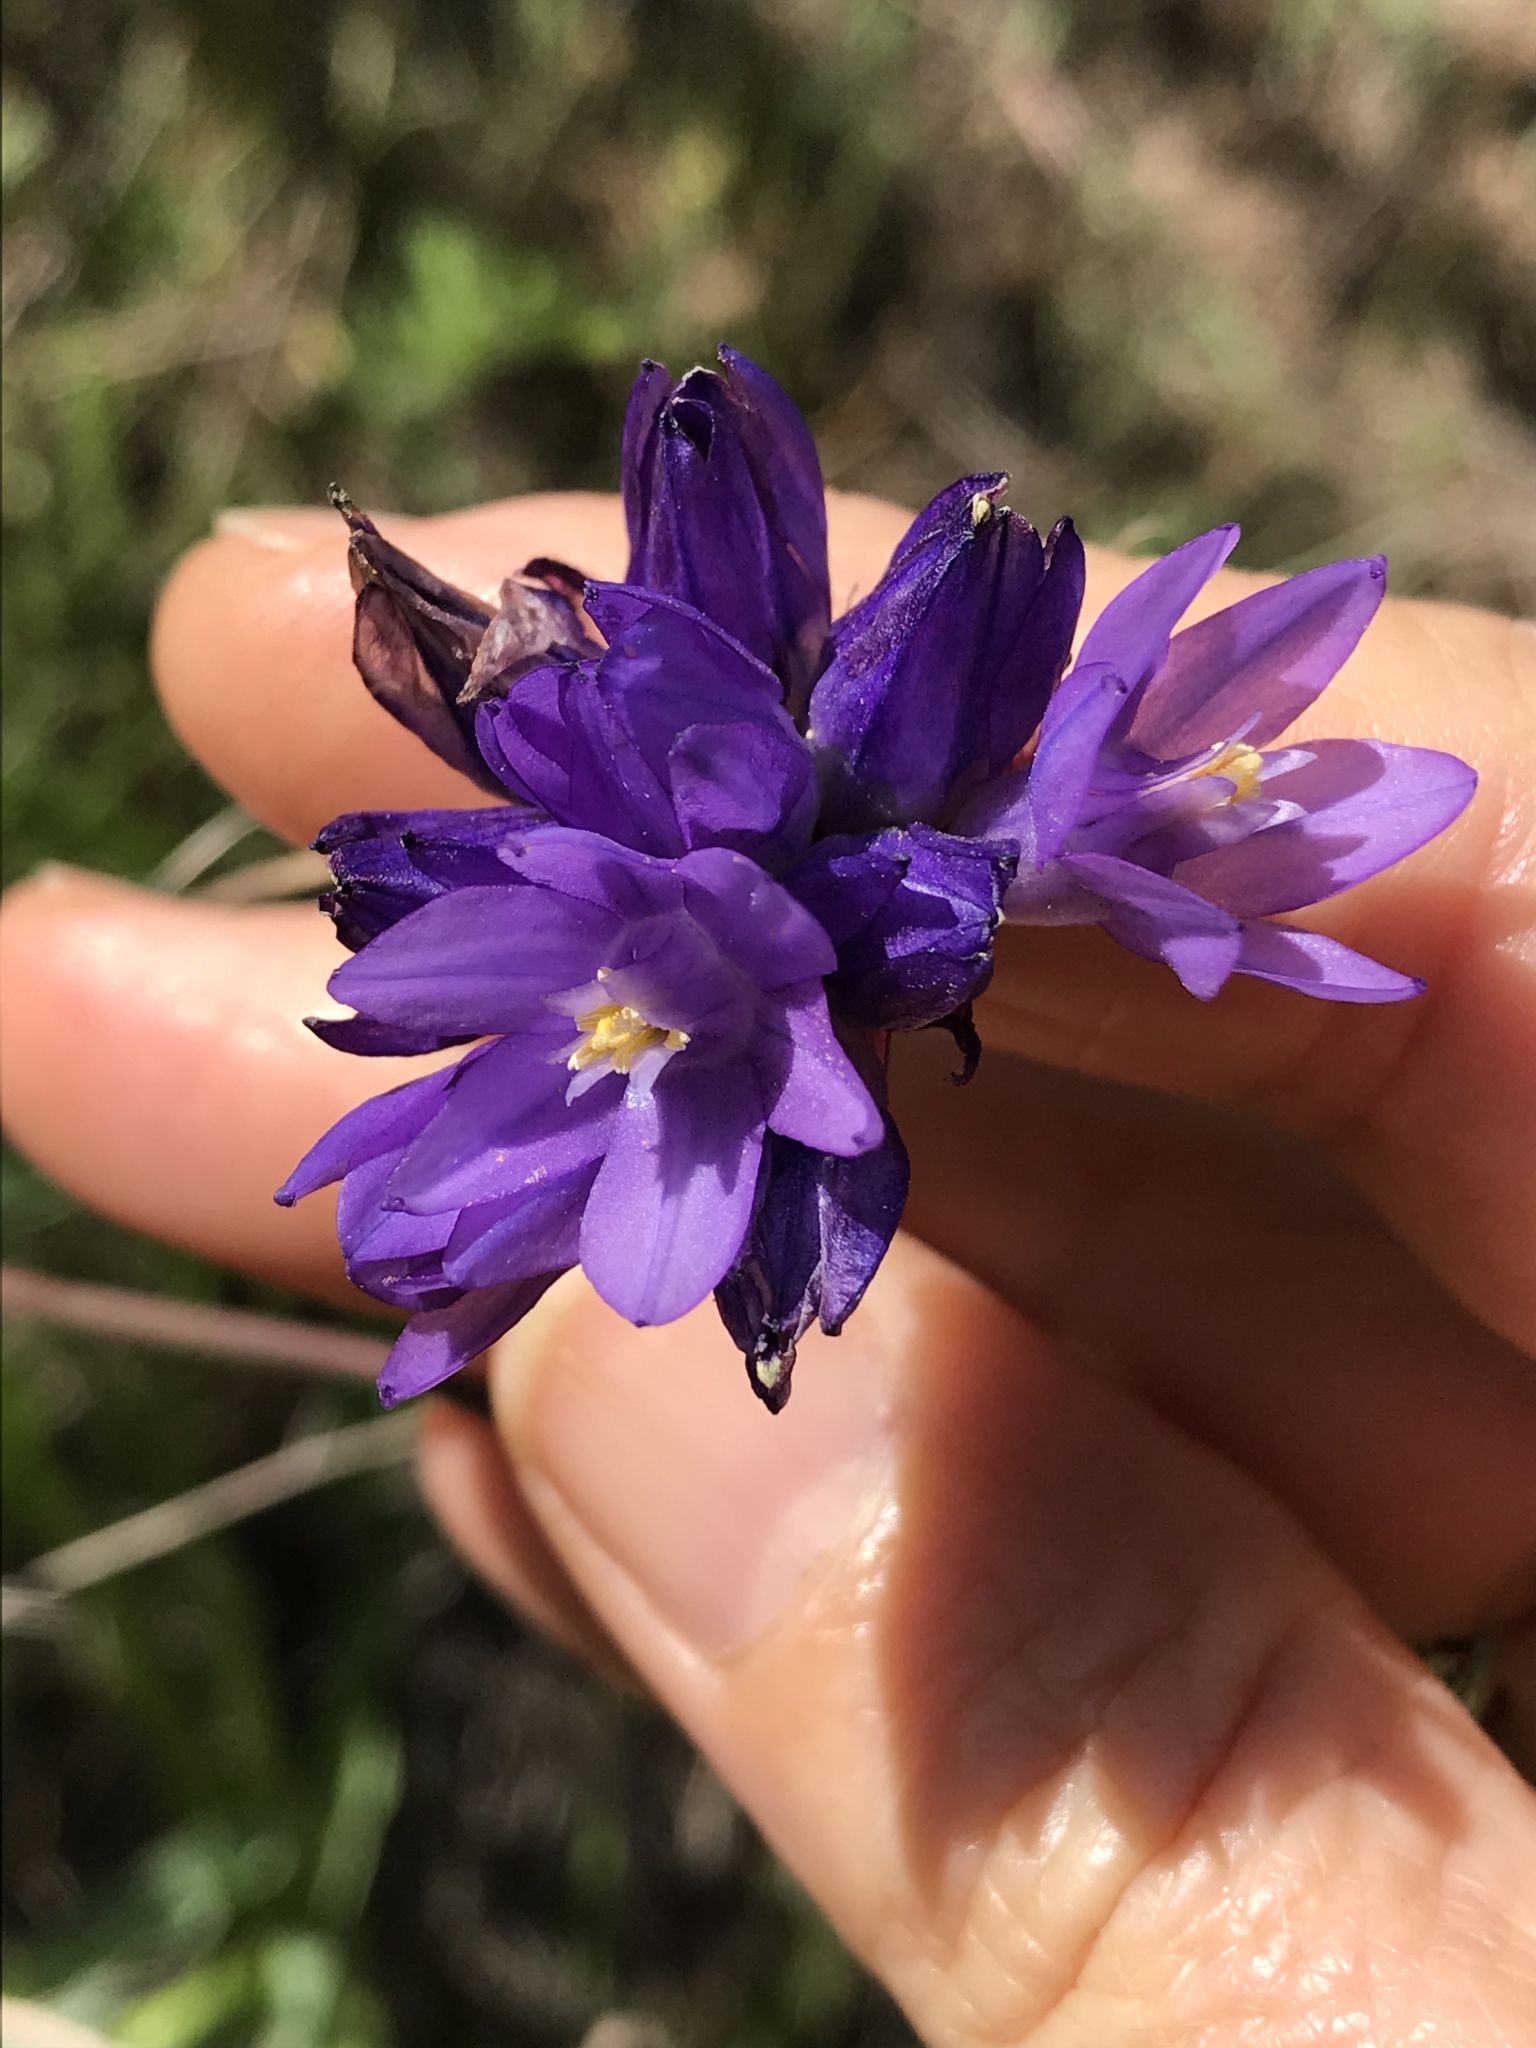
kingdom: Plantae
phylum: Tracheophyta
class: Liliopsida
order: Asparagales
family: Asparagaceae
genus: Dipterostemon
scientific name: Dipterostemon capitatus
